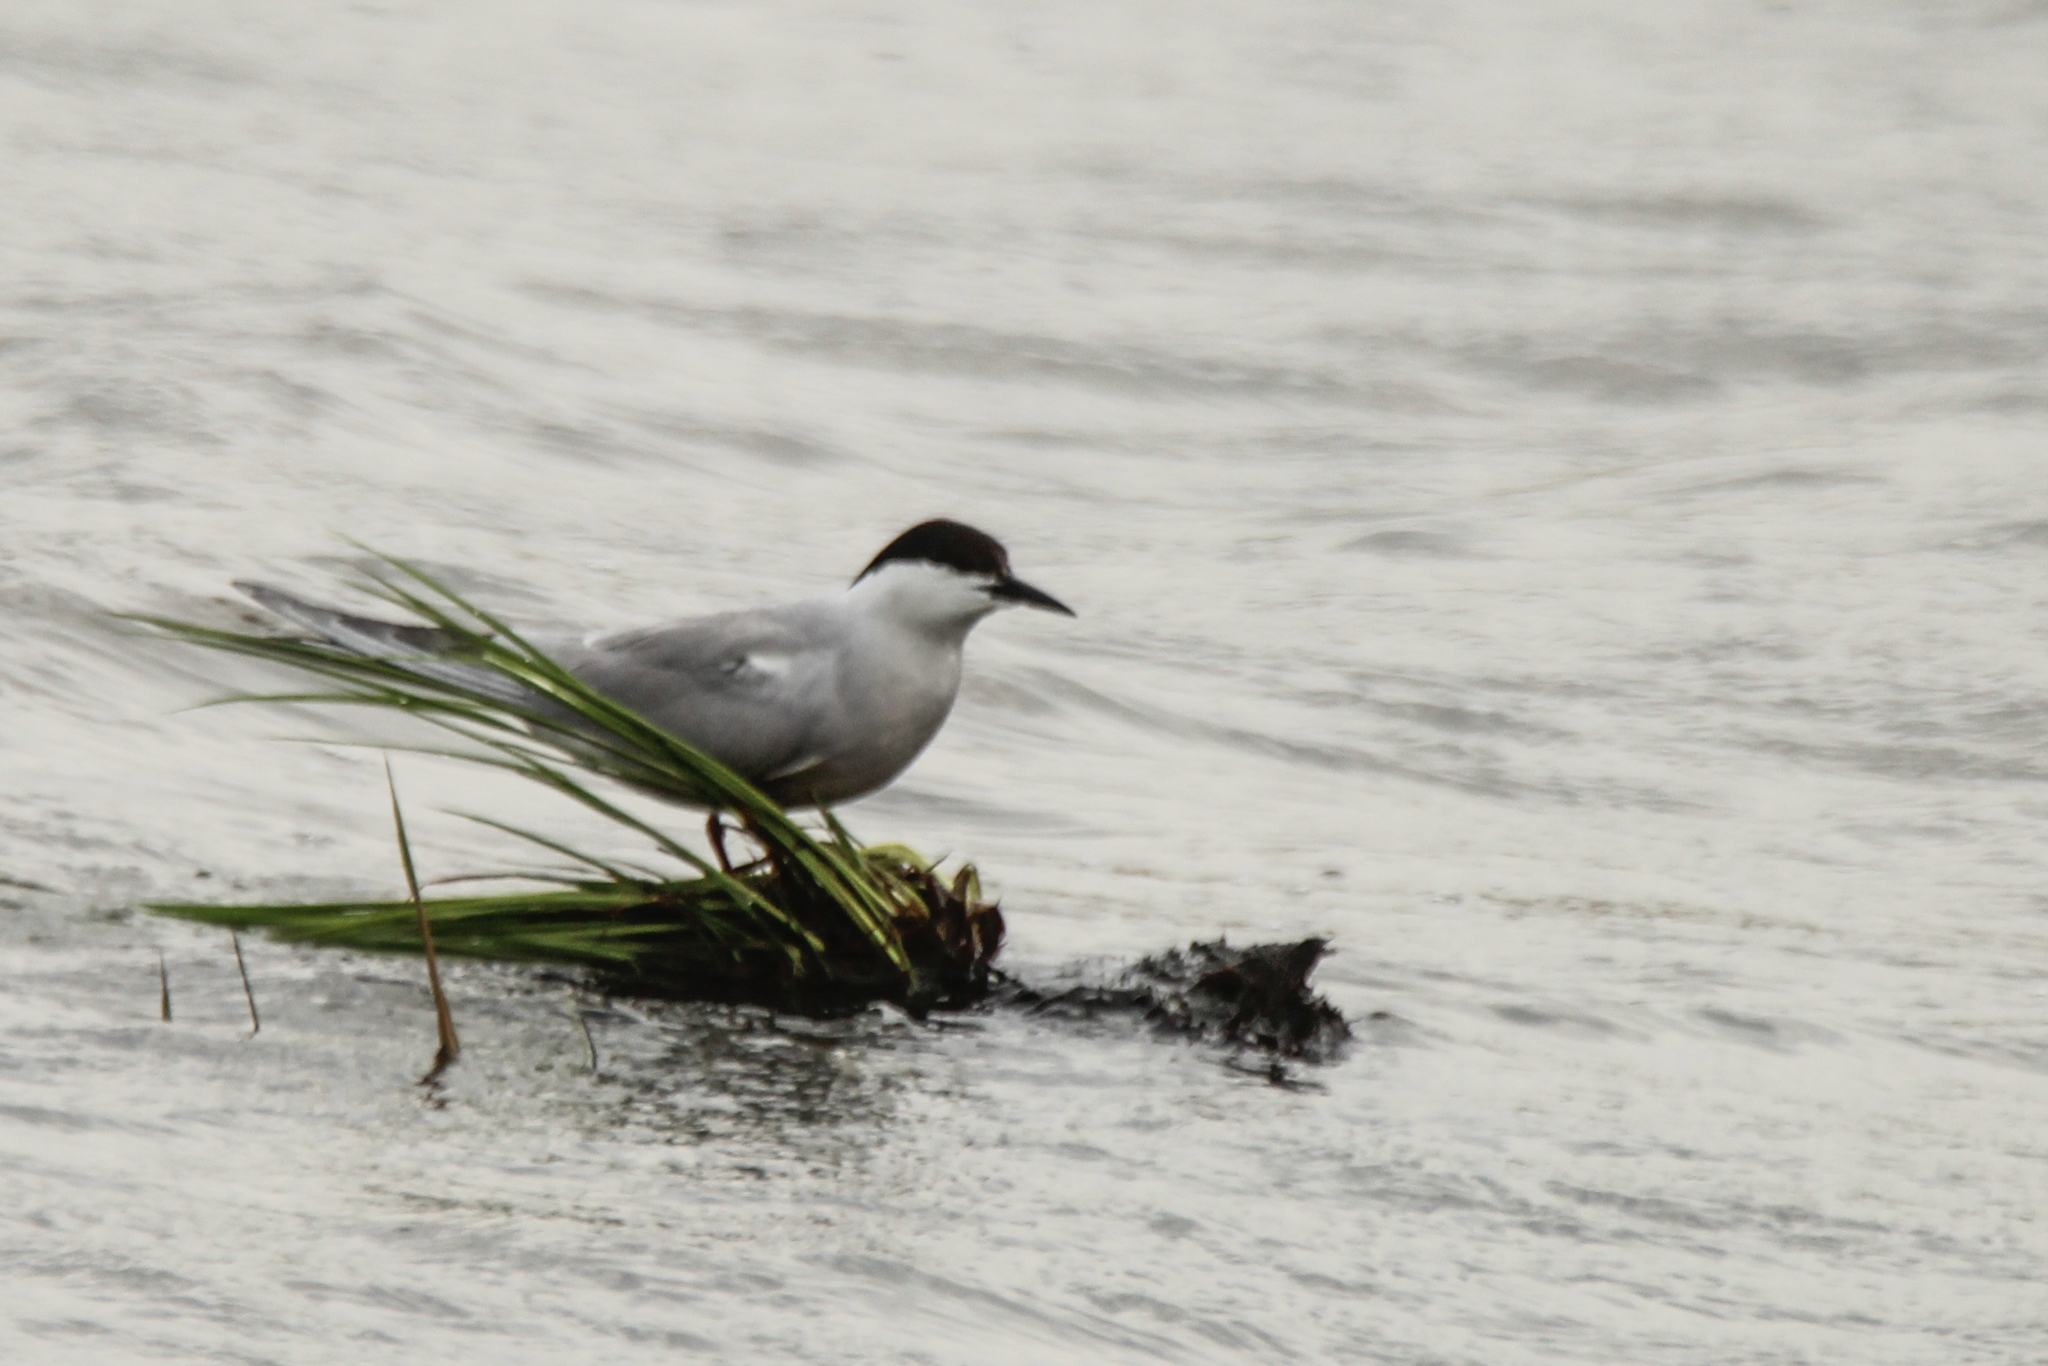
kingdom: Animalia
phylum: Chordata
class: Aves
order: Charadriiformes
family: Laridae
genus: Sterna
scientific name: Sterna hirundo
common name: Common tern
